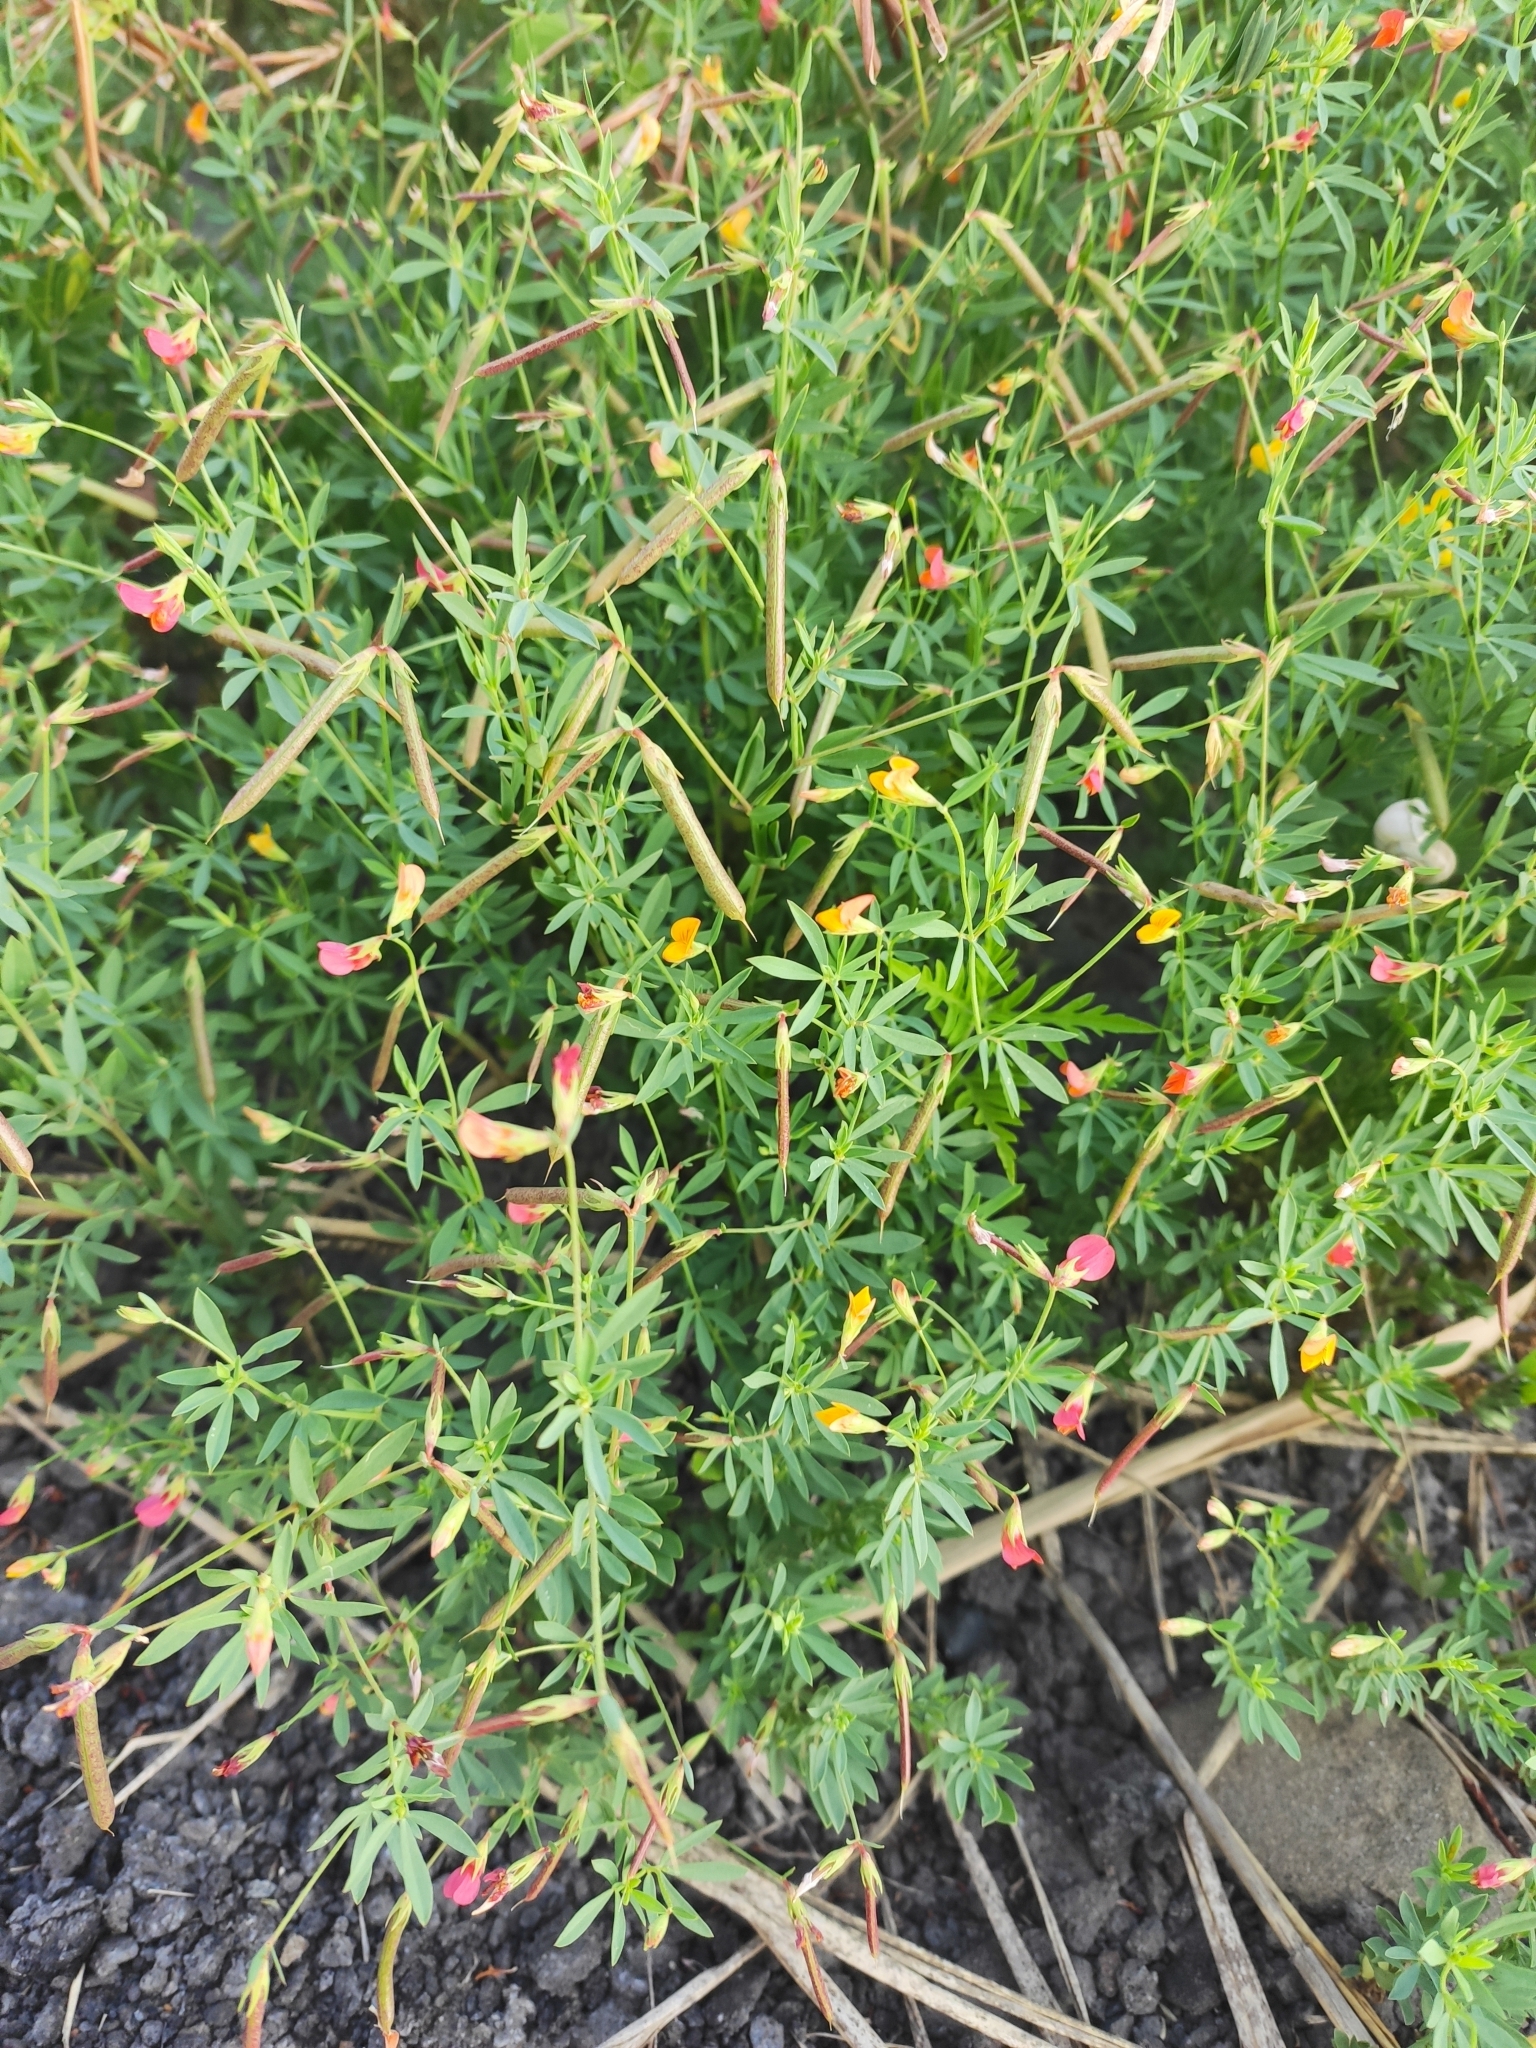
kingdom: Plantae
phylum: Tracheophyta
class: Magnoliopsida
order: Fabales
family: Fabaceae
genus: Lotus
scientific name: Lotus frondosus
